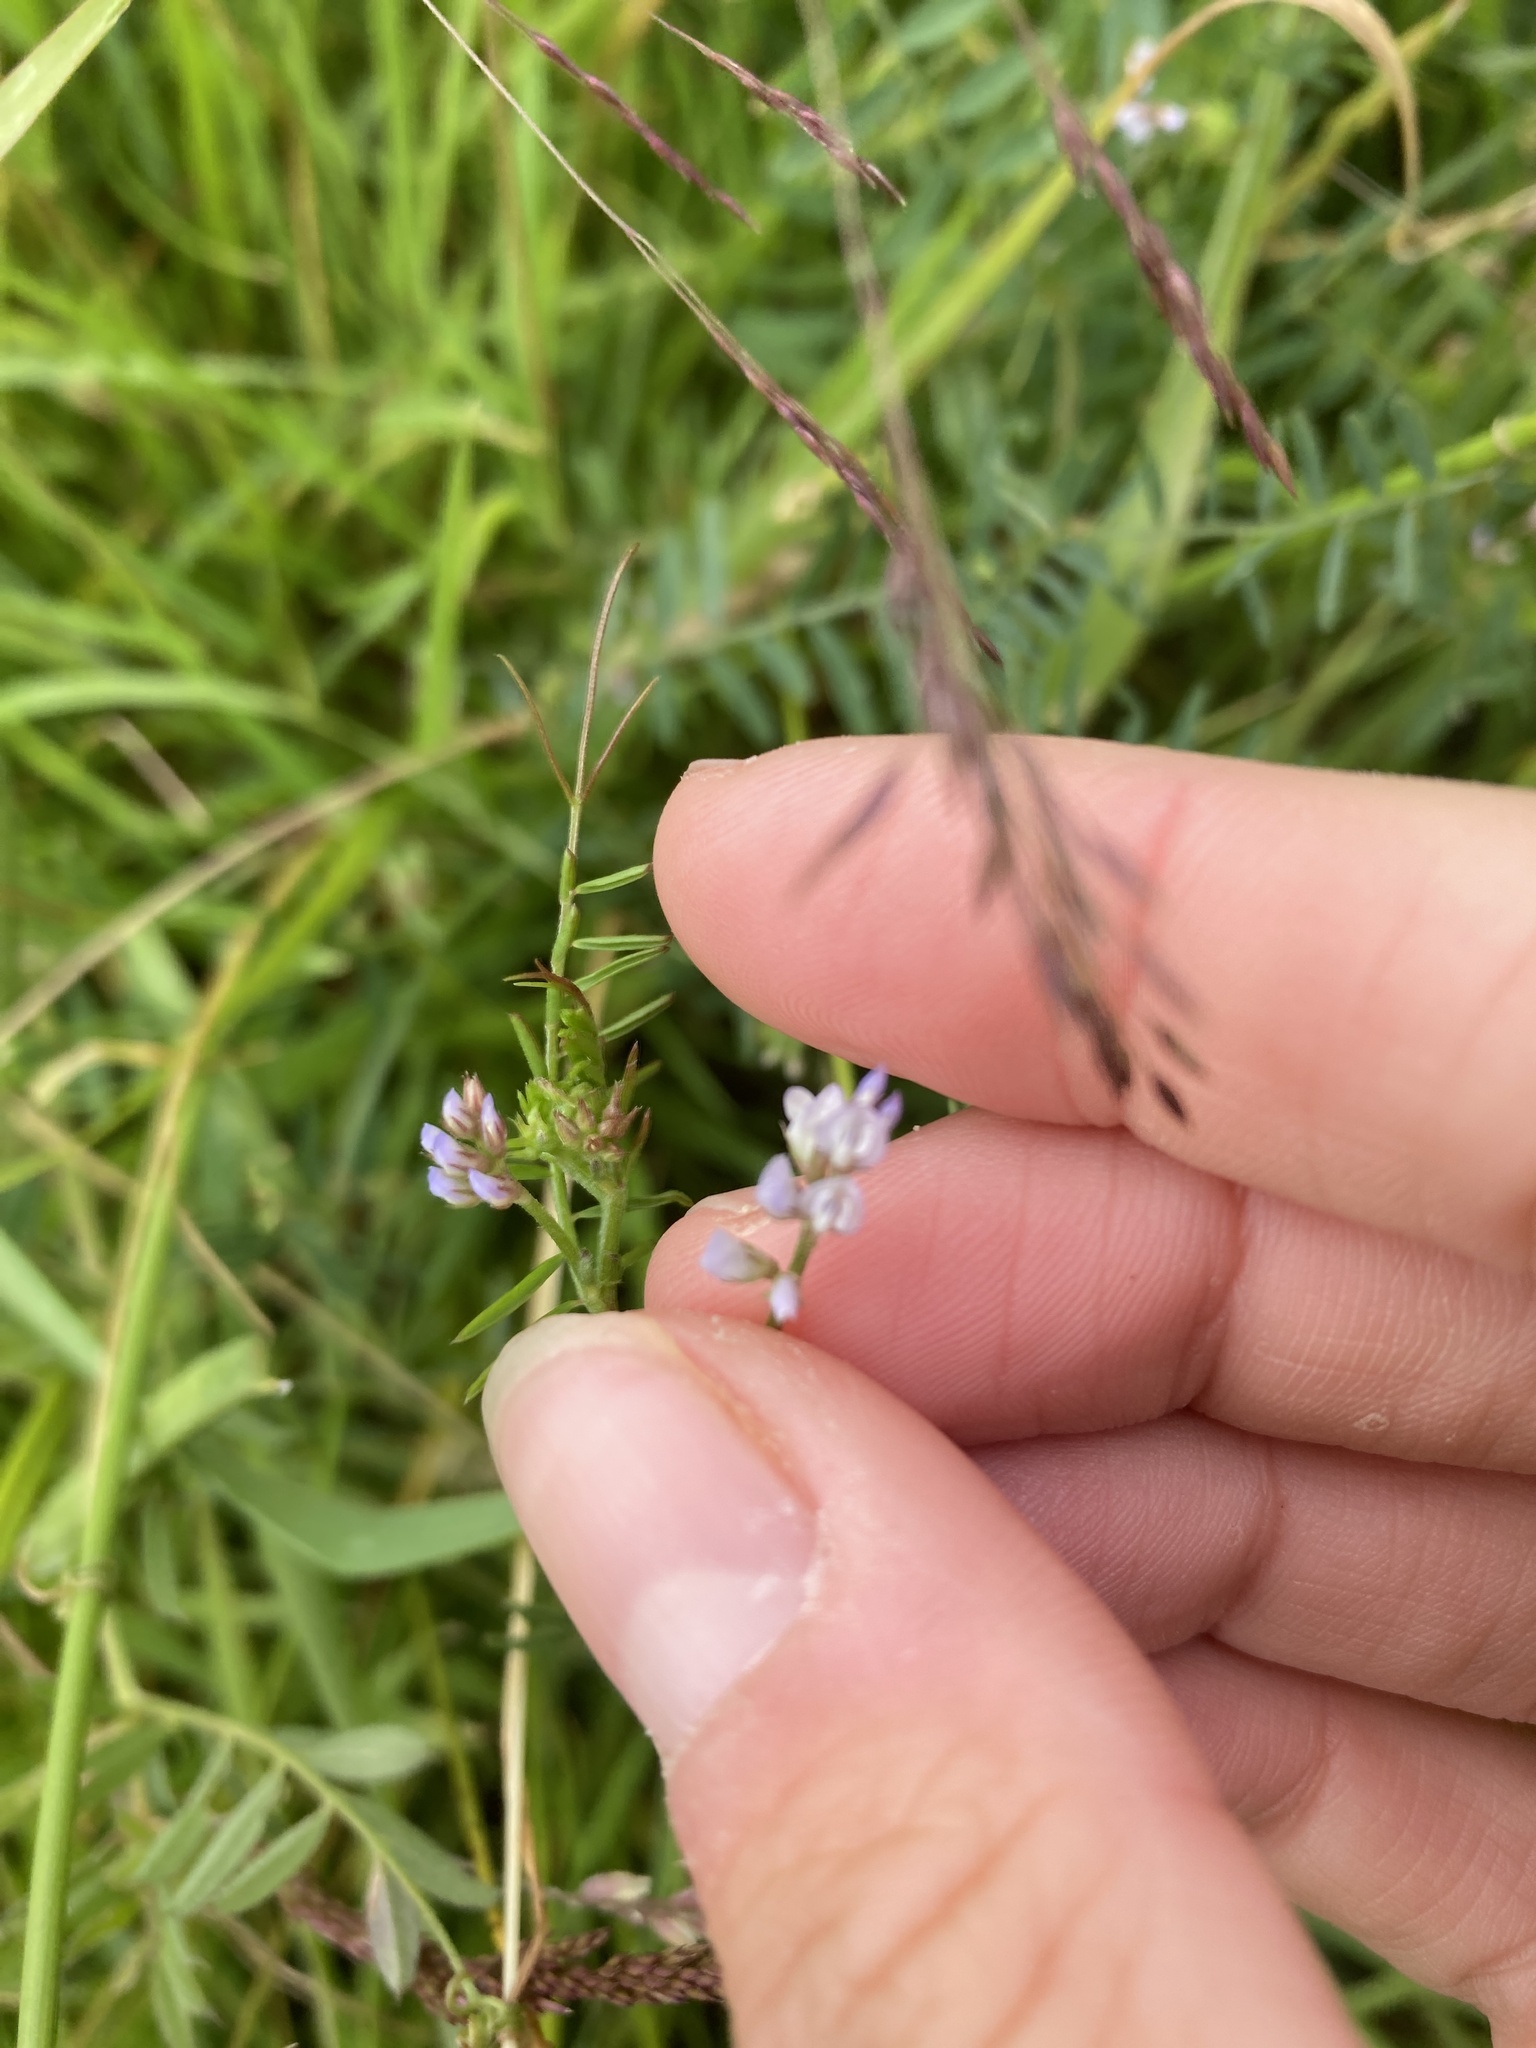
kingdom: Plantae
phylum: Tracheophyta
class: Magnoliopsida
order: Fabales
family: Fabaceae
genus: Vicia
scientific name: Vicia hirsuta
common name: Tiny vetch
